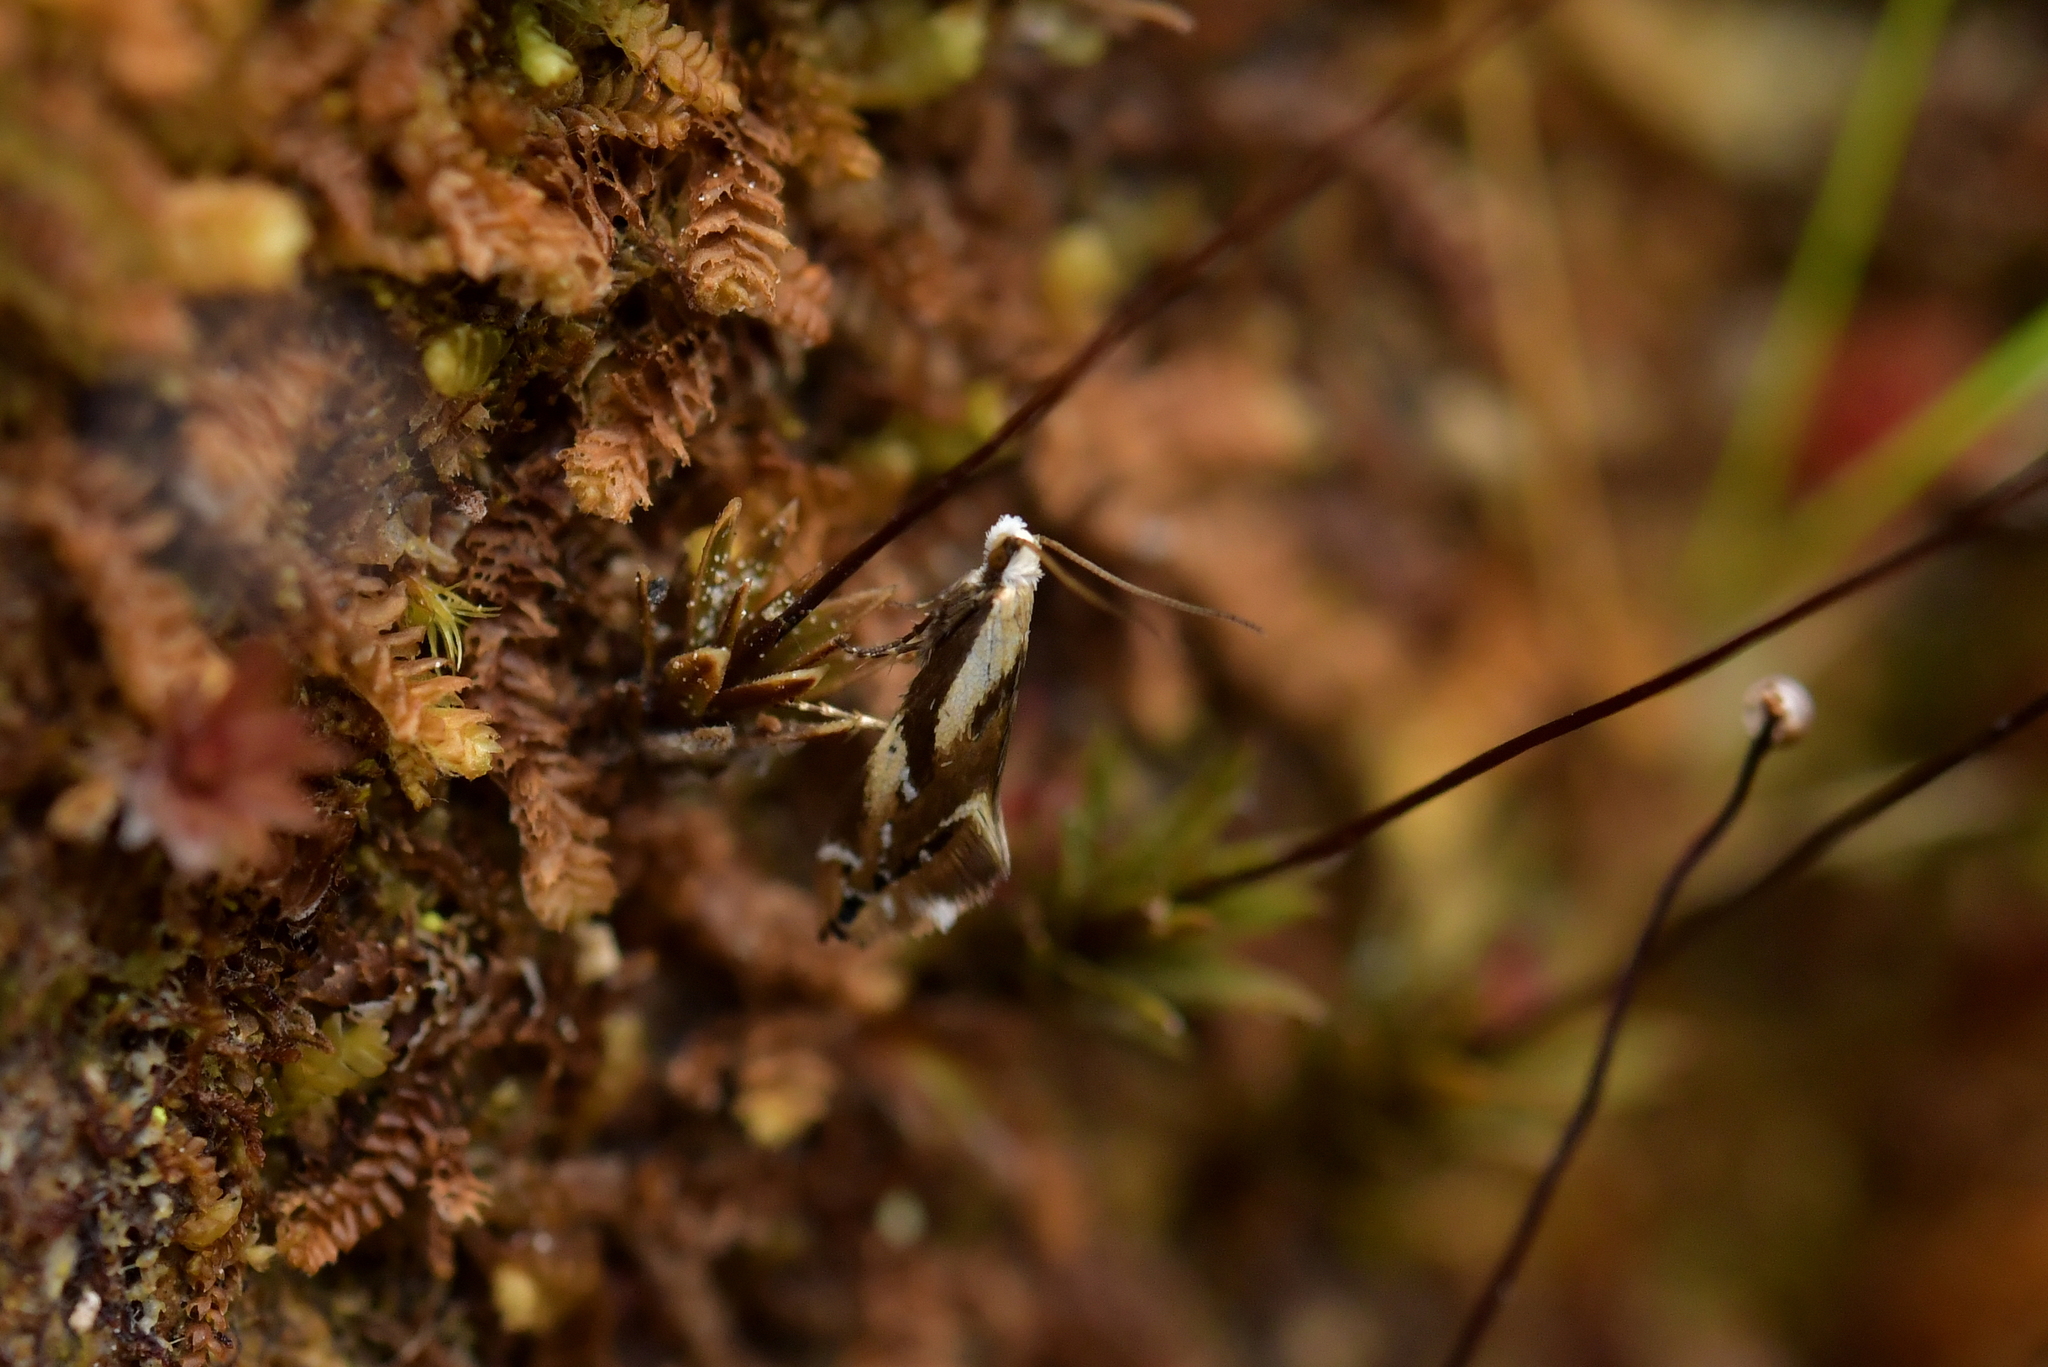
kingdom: Animalia
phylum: Arthropoda
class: Insecta
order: Lepidoptera
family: Mnesarchaeidae
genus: Mnesarchella
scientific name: Mnesarchella acuta
